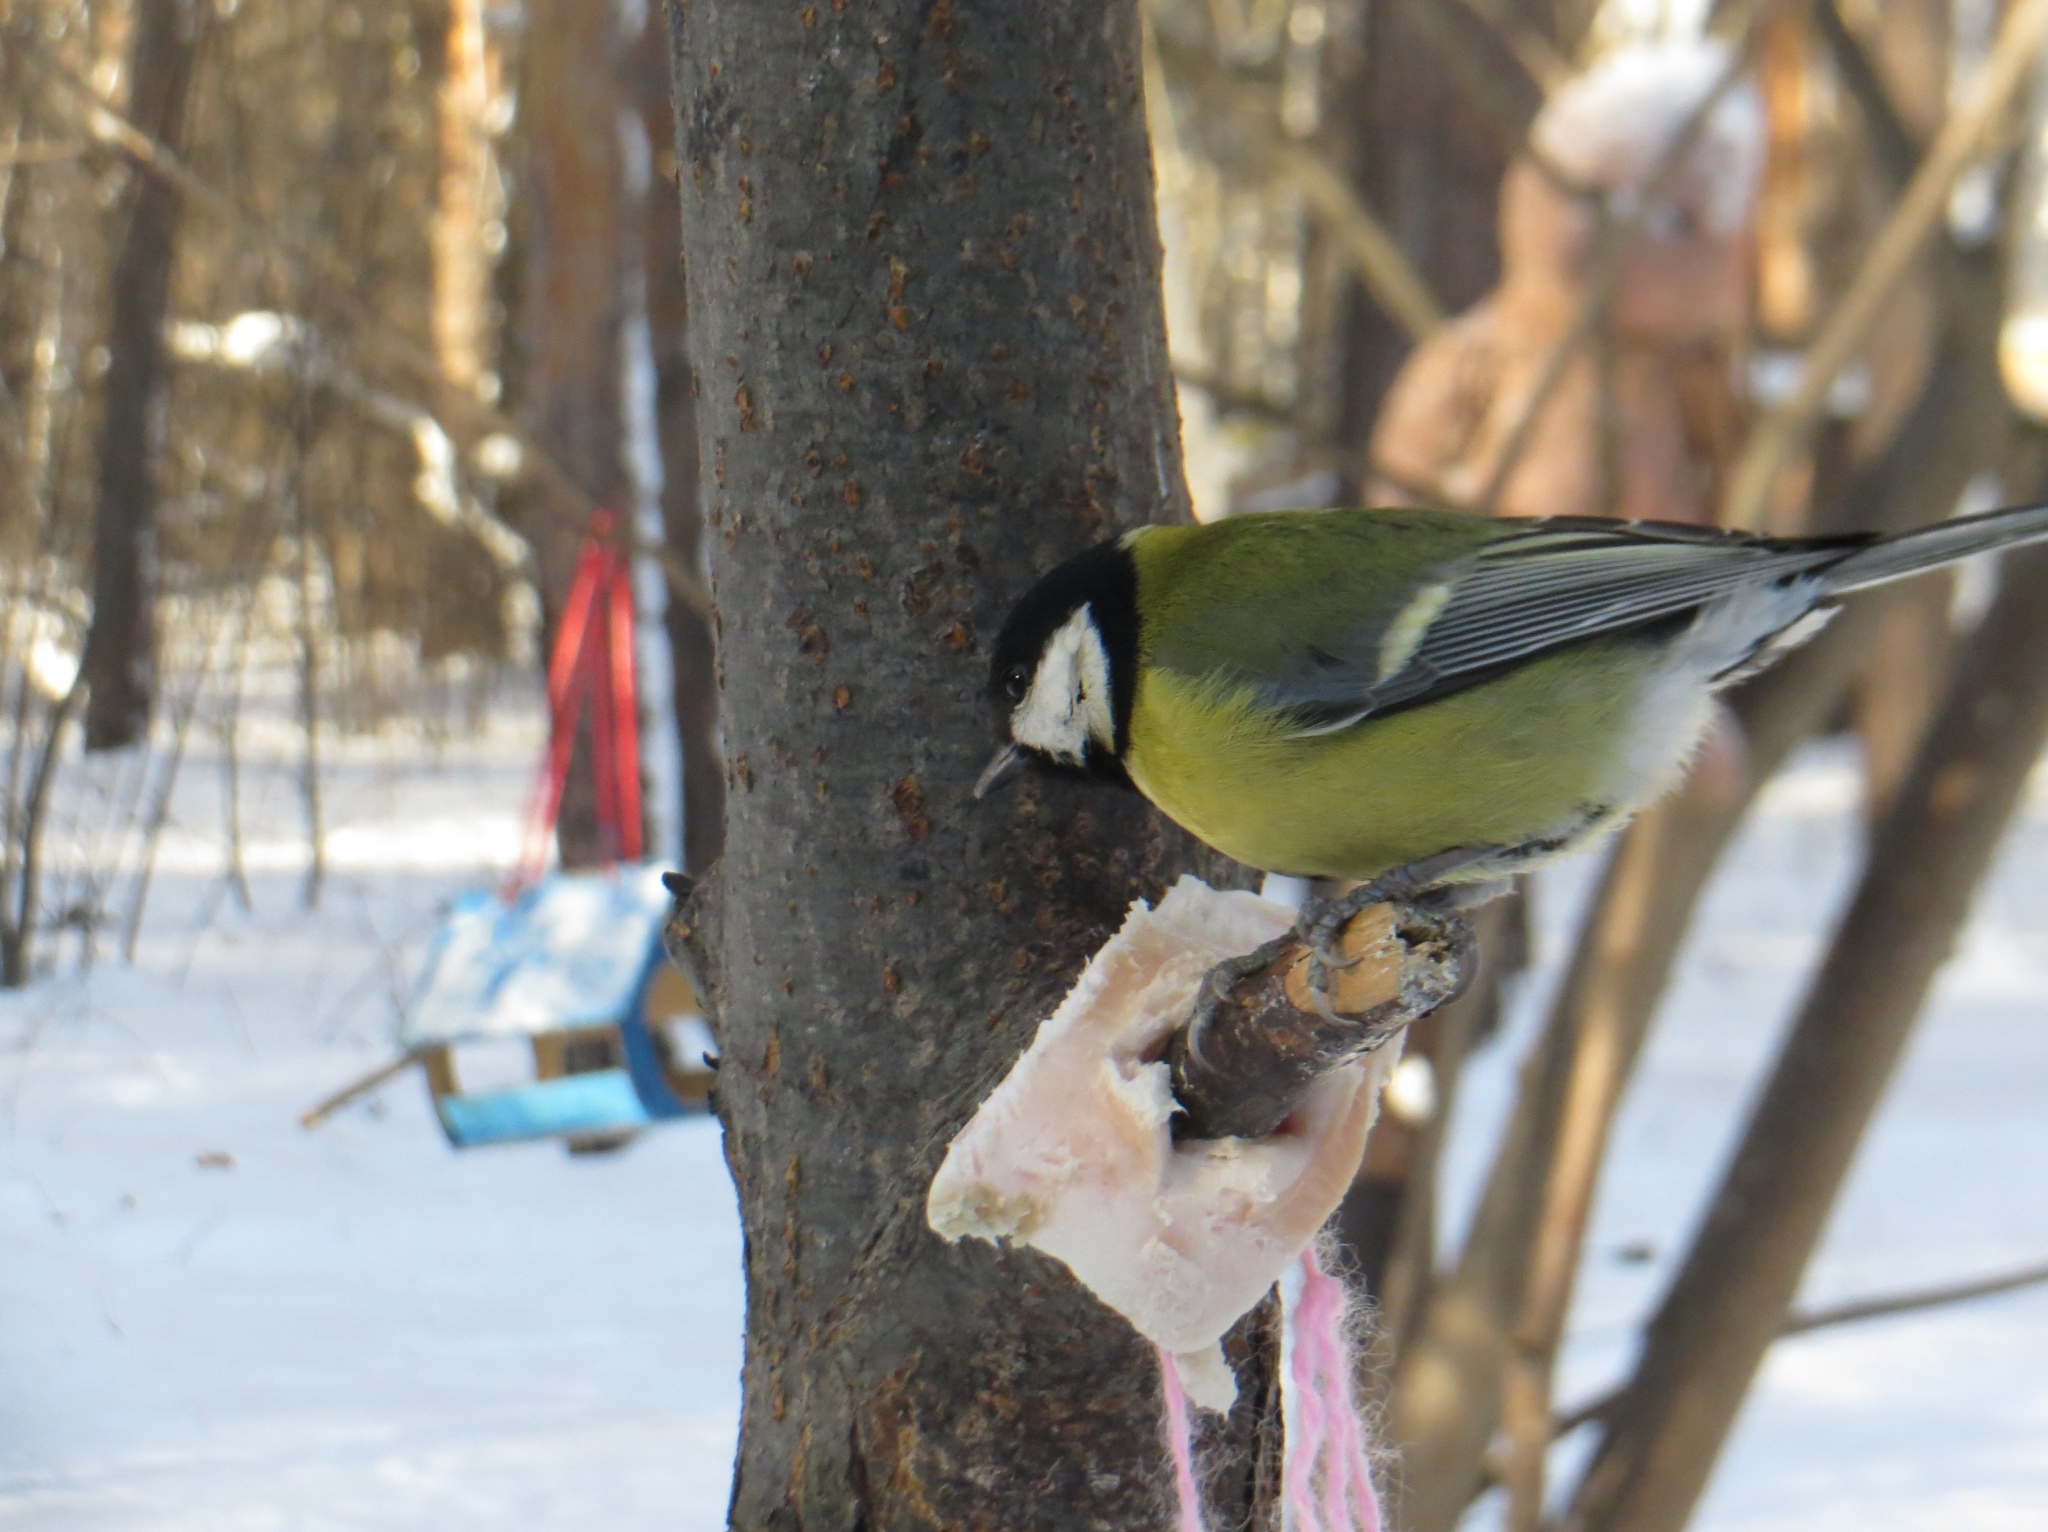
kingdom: Animalia
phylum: Chordata
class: Aves
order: Passeriformes
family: Paridae
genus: Parus
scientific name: Parus major
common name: Great tit
